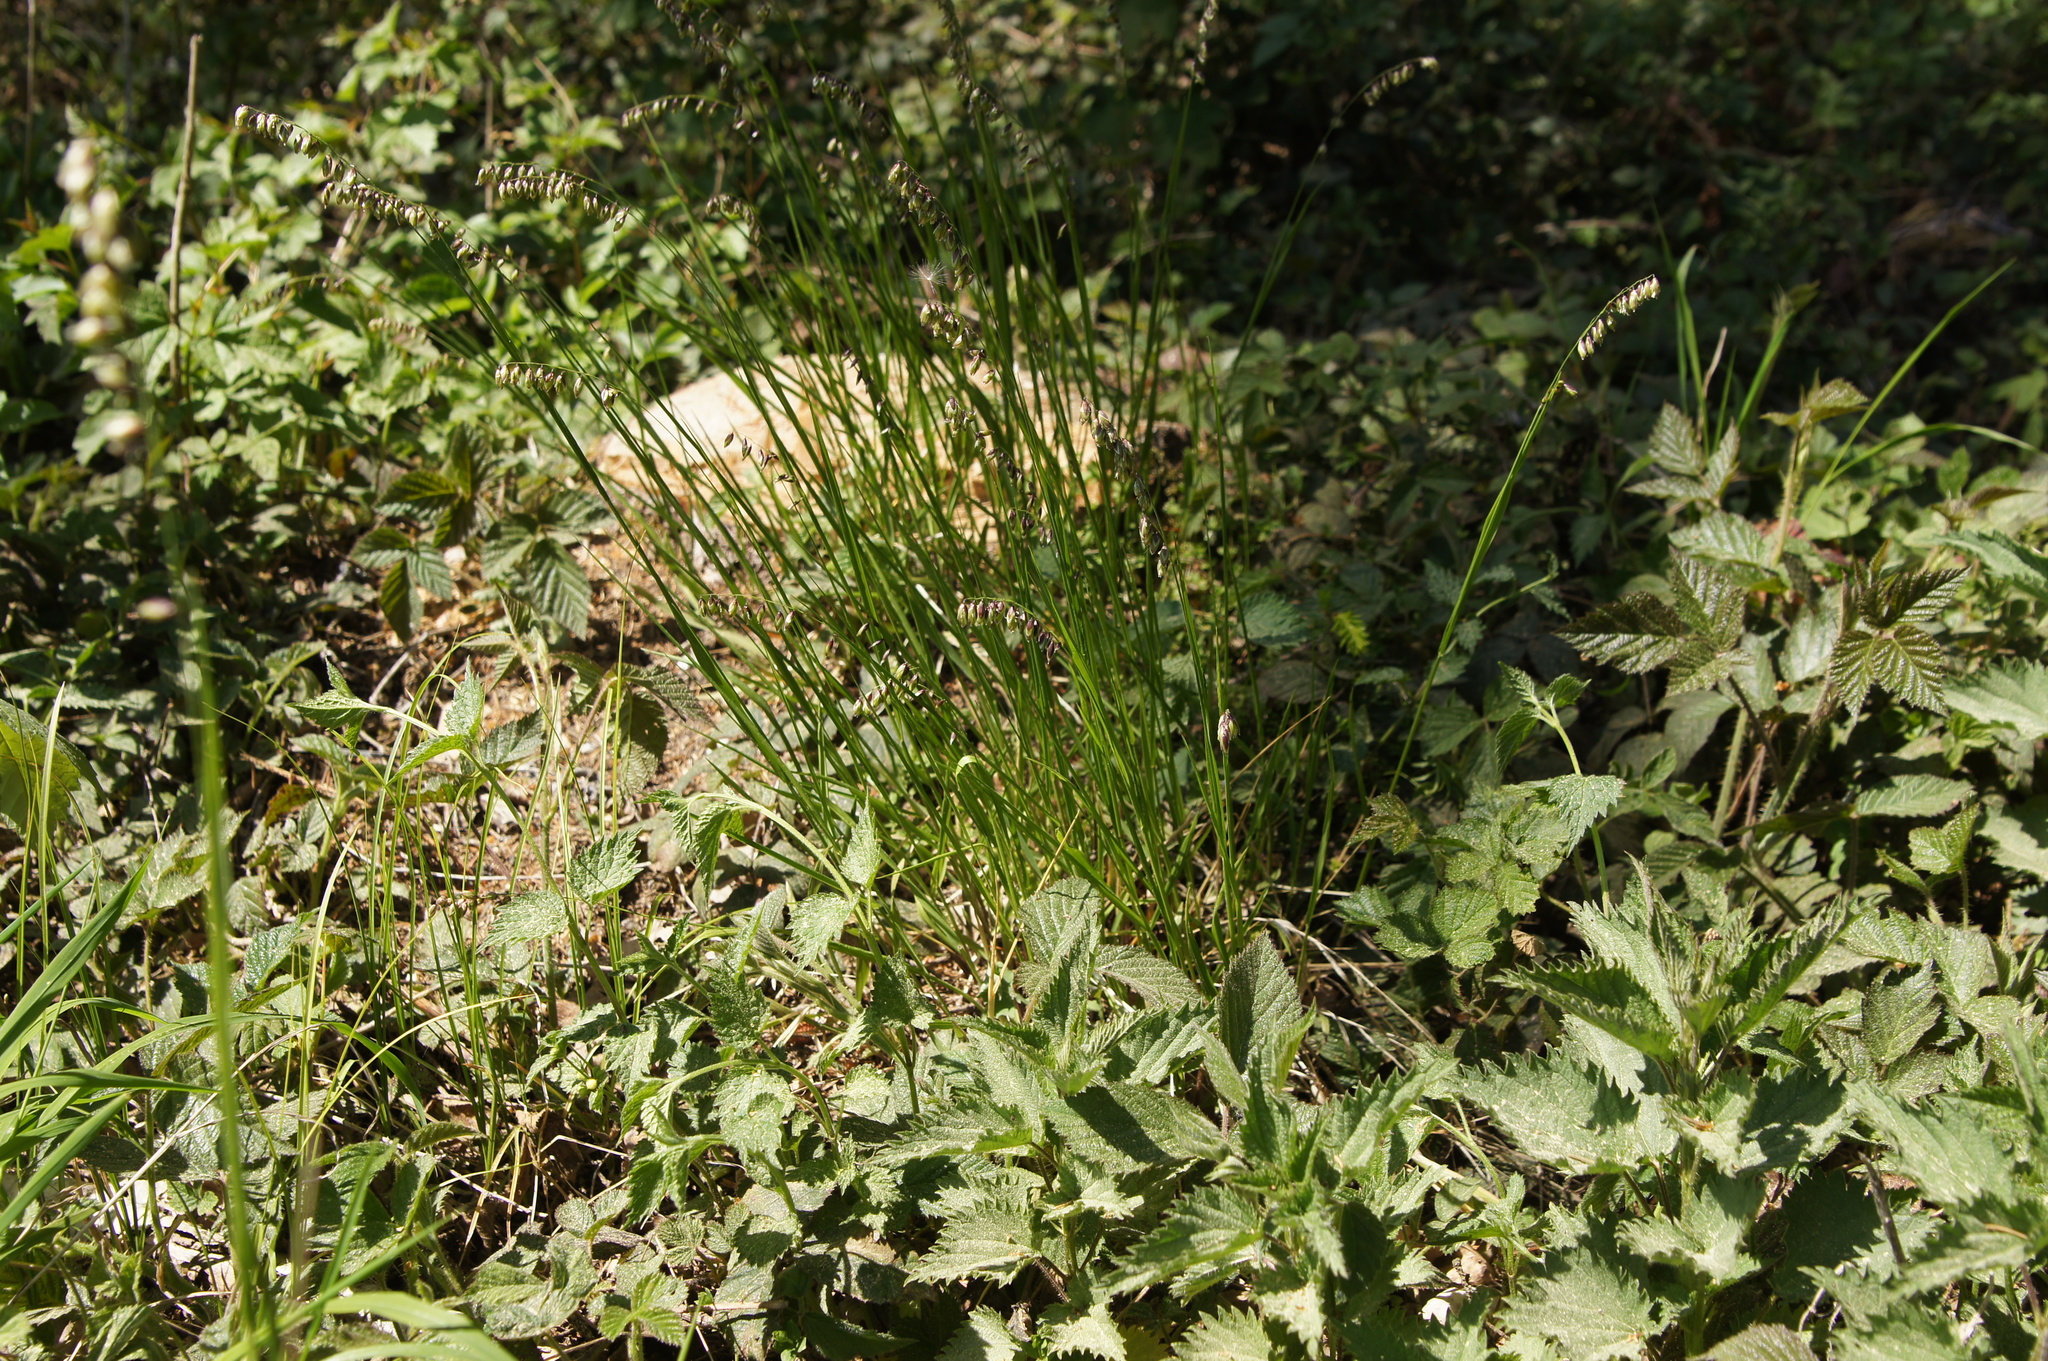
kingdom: Plantae
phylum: Tracheophyta
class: Liliopsida
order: Poales
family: Poaceae
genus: Melica
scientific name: Melica nutans
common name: Mountain melick
